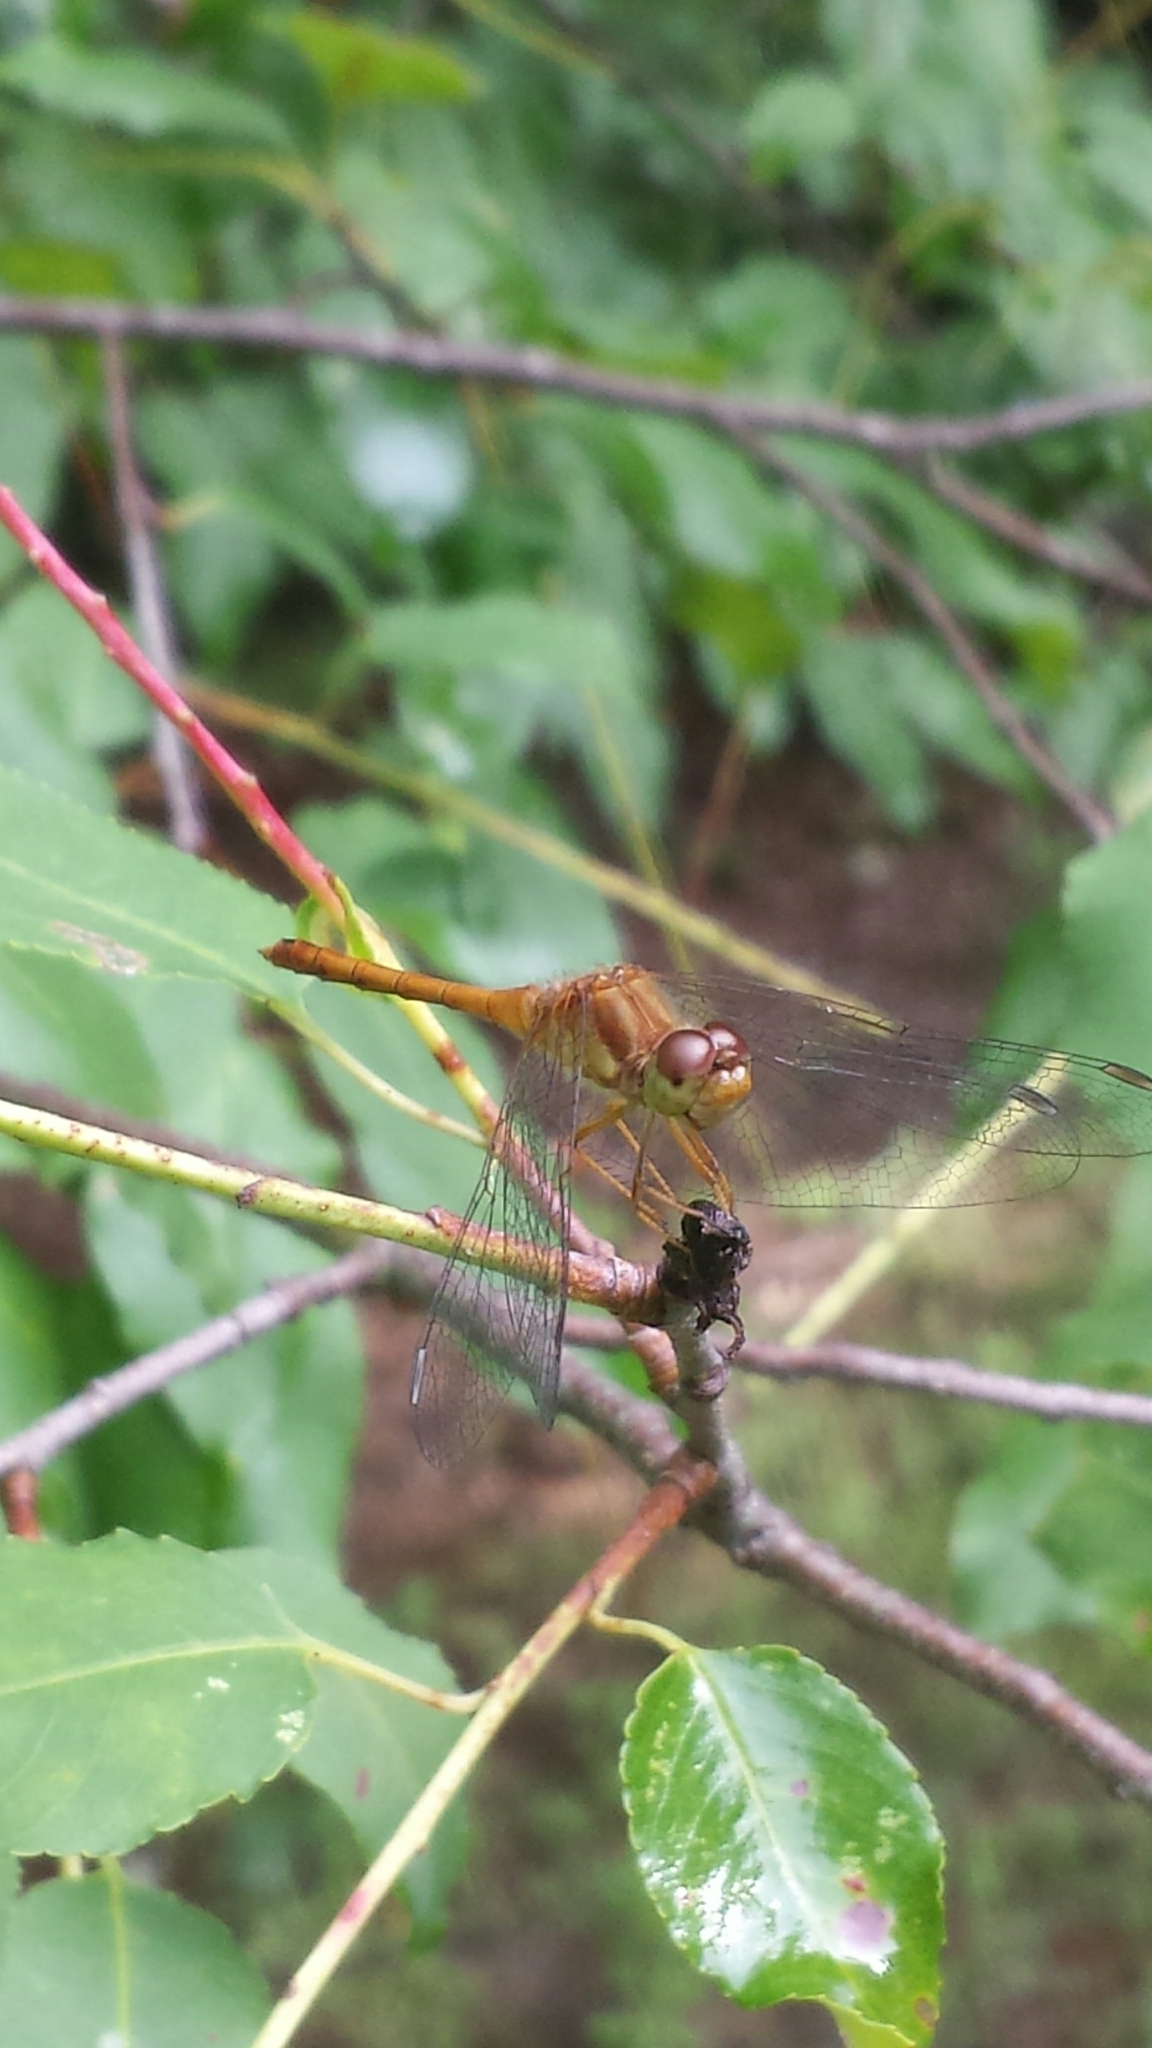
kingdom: Animalia
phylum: Arthropoda
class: Insecta
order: Odonata
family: Libellulidae
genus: Sympetrum
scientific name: Sympetrum vicinum
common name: Autumn meadowhawk
